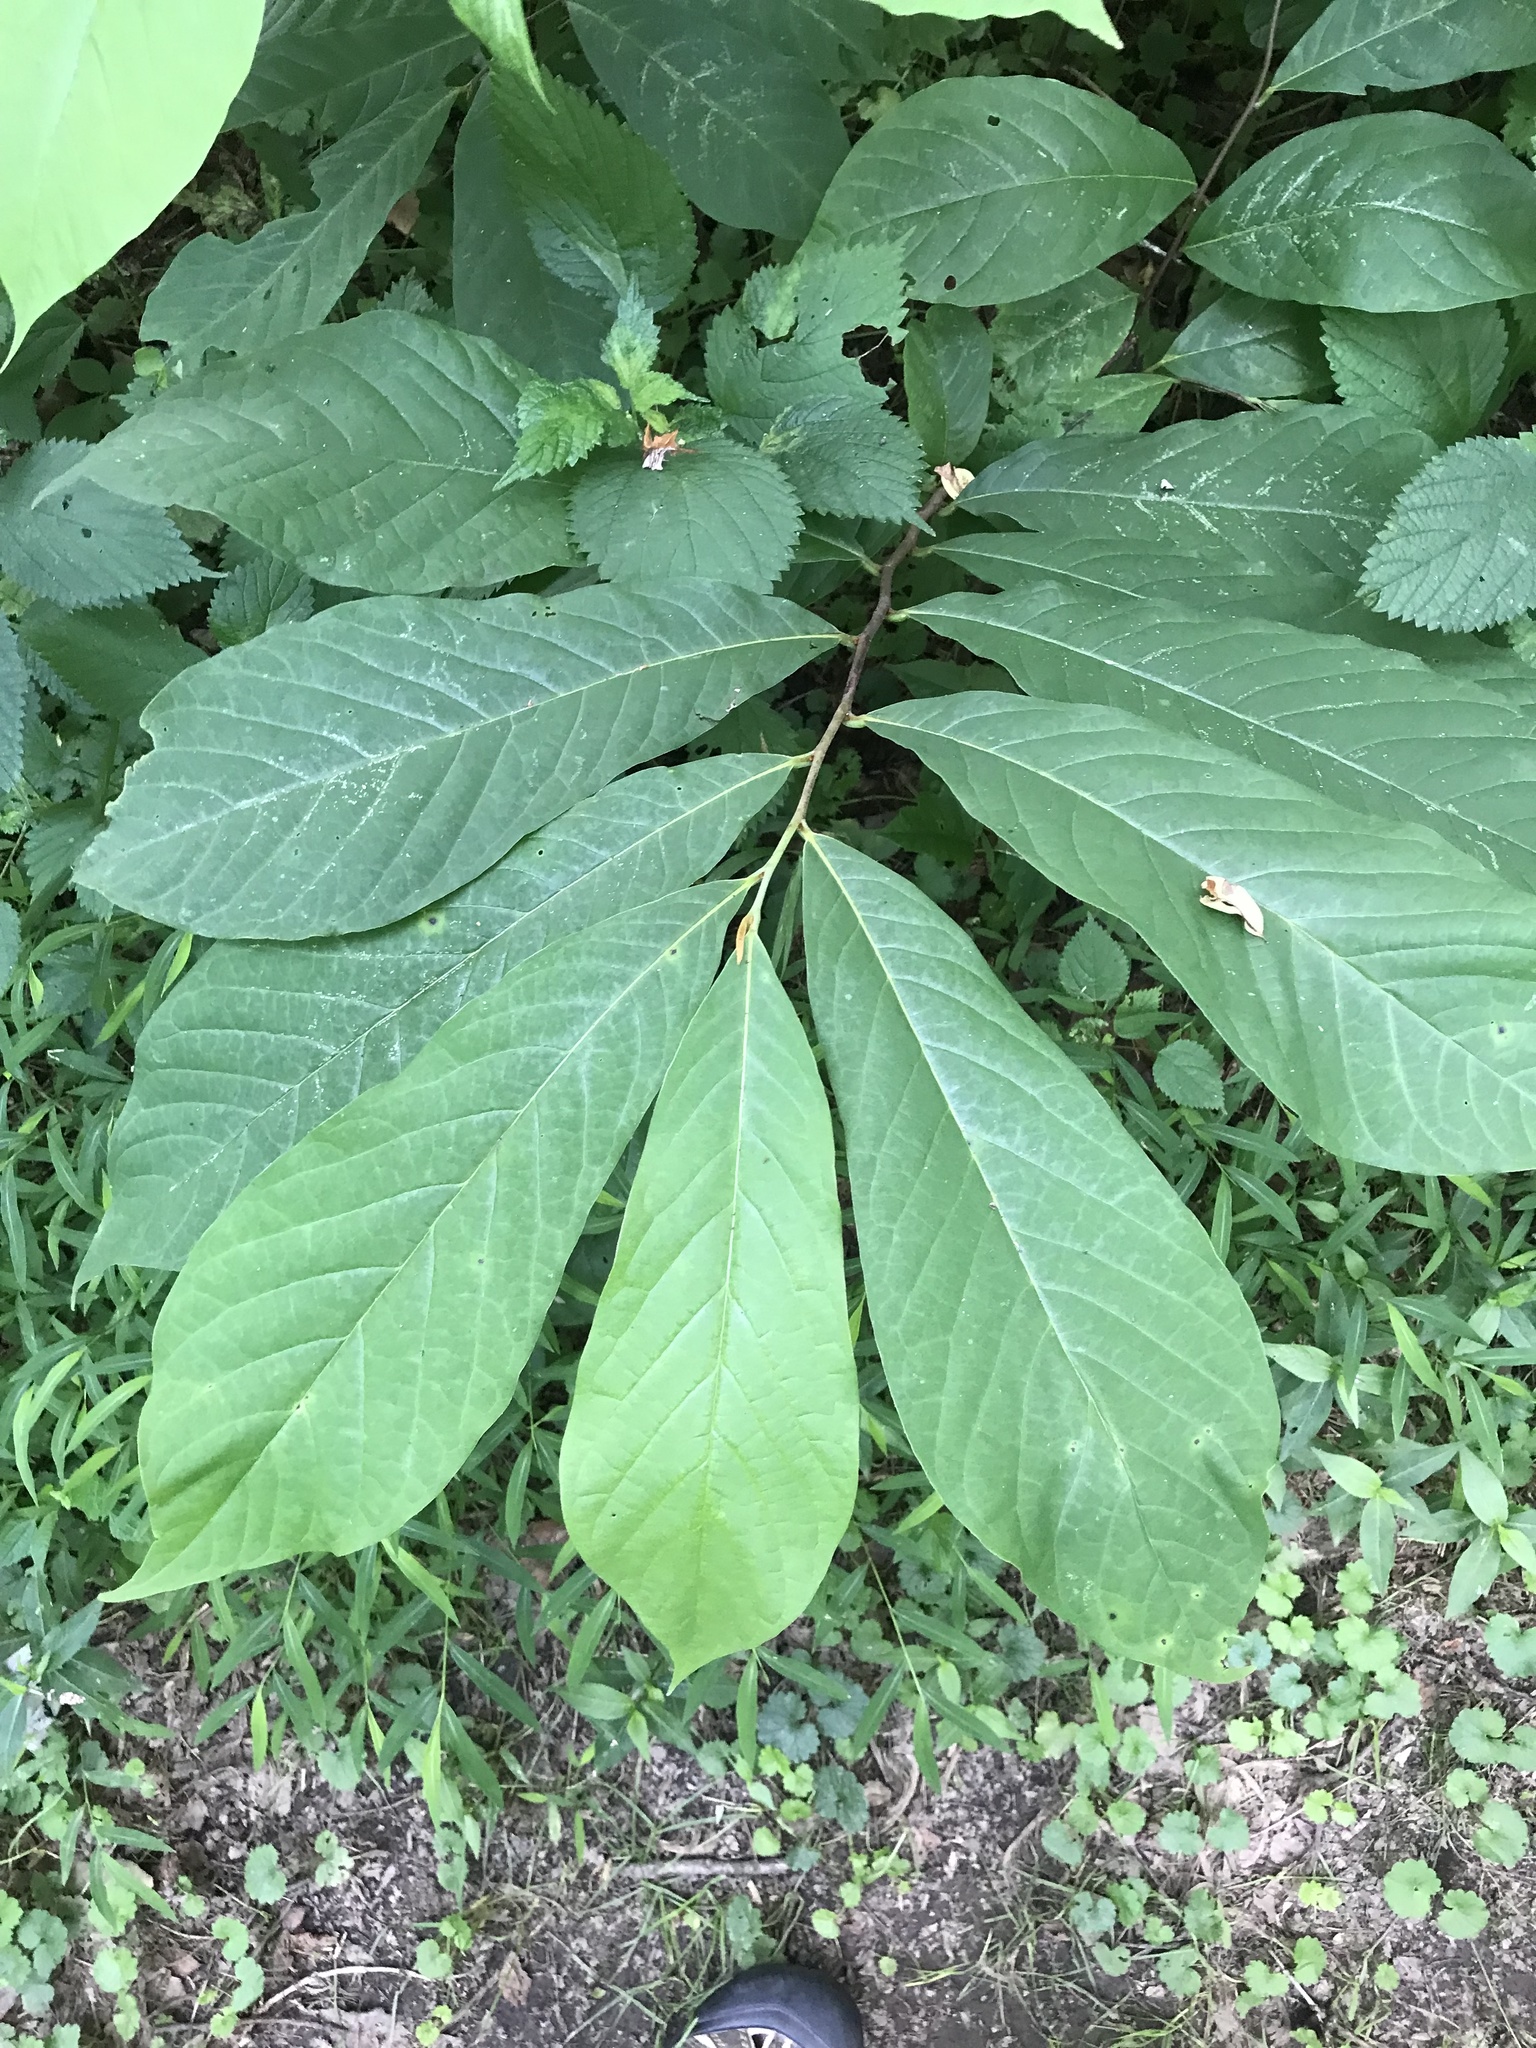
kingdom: Plantae
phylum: Tracheophyta
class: Magnoliopsida
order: Magnoliales
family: Annonaceae
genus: Asimina
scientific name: Asimina triloba
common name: Dog-banana
